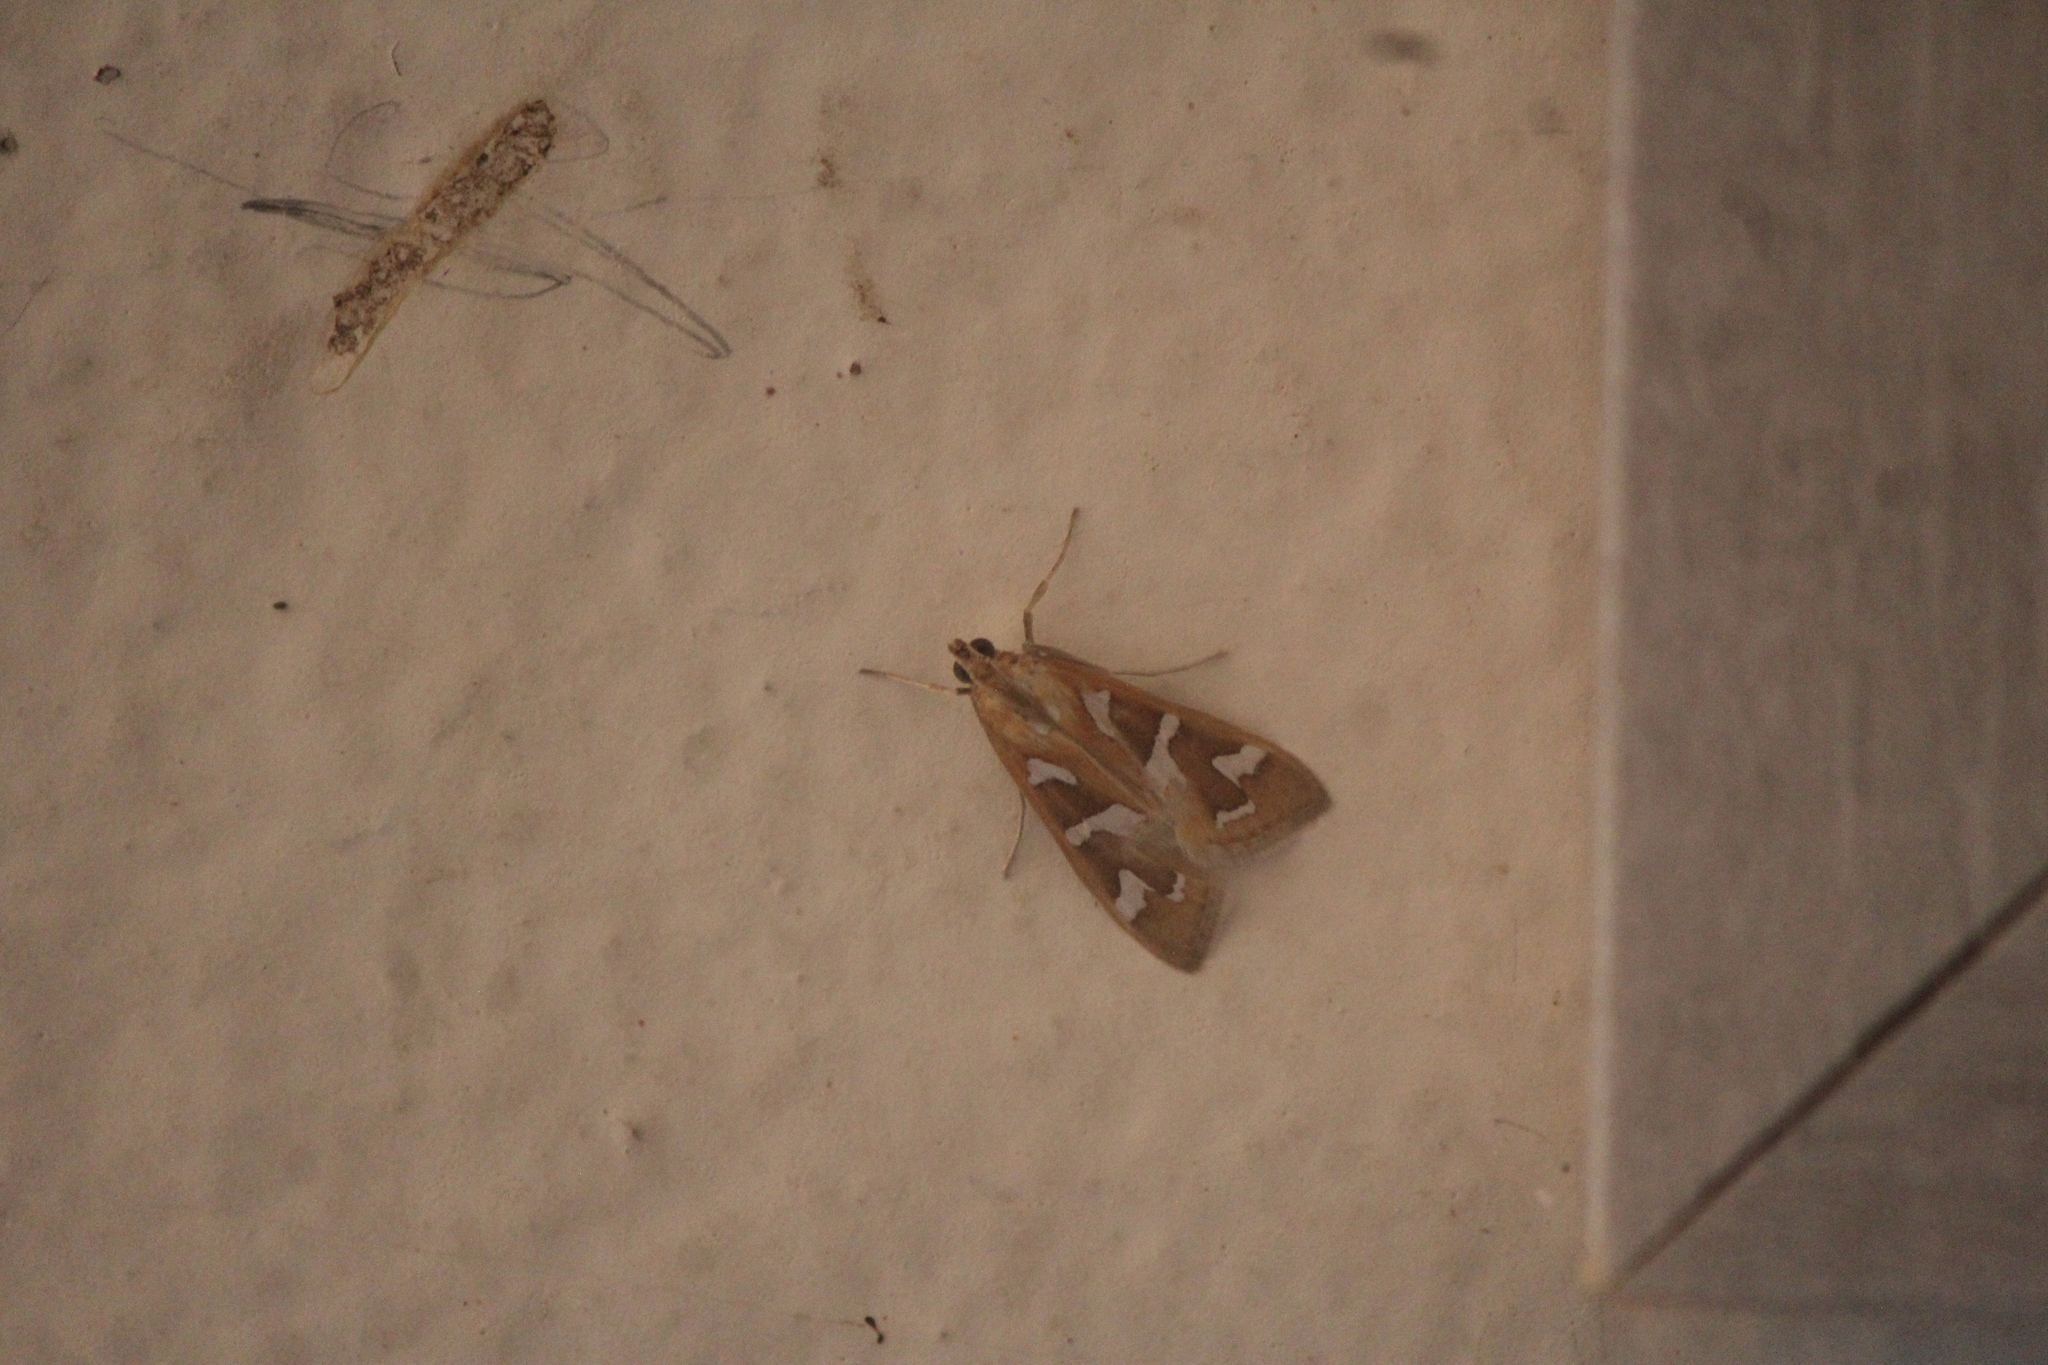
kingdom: Animalia
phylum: Arthropoda
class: Insecta
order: Lepidoptera
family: Crambidae
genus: Diastictis
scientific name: Diastictis fracturalis
